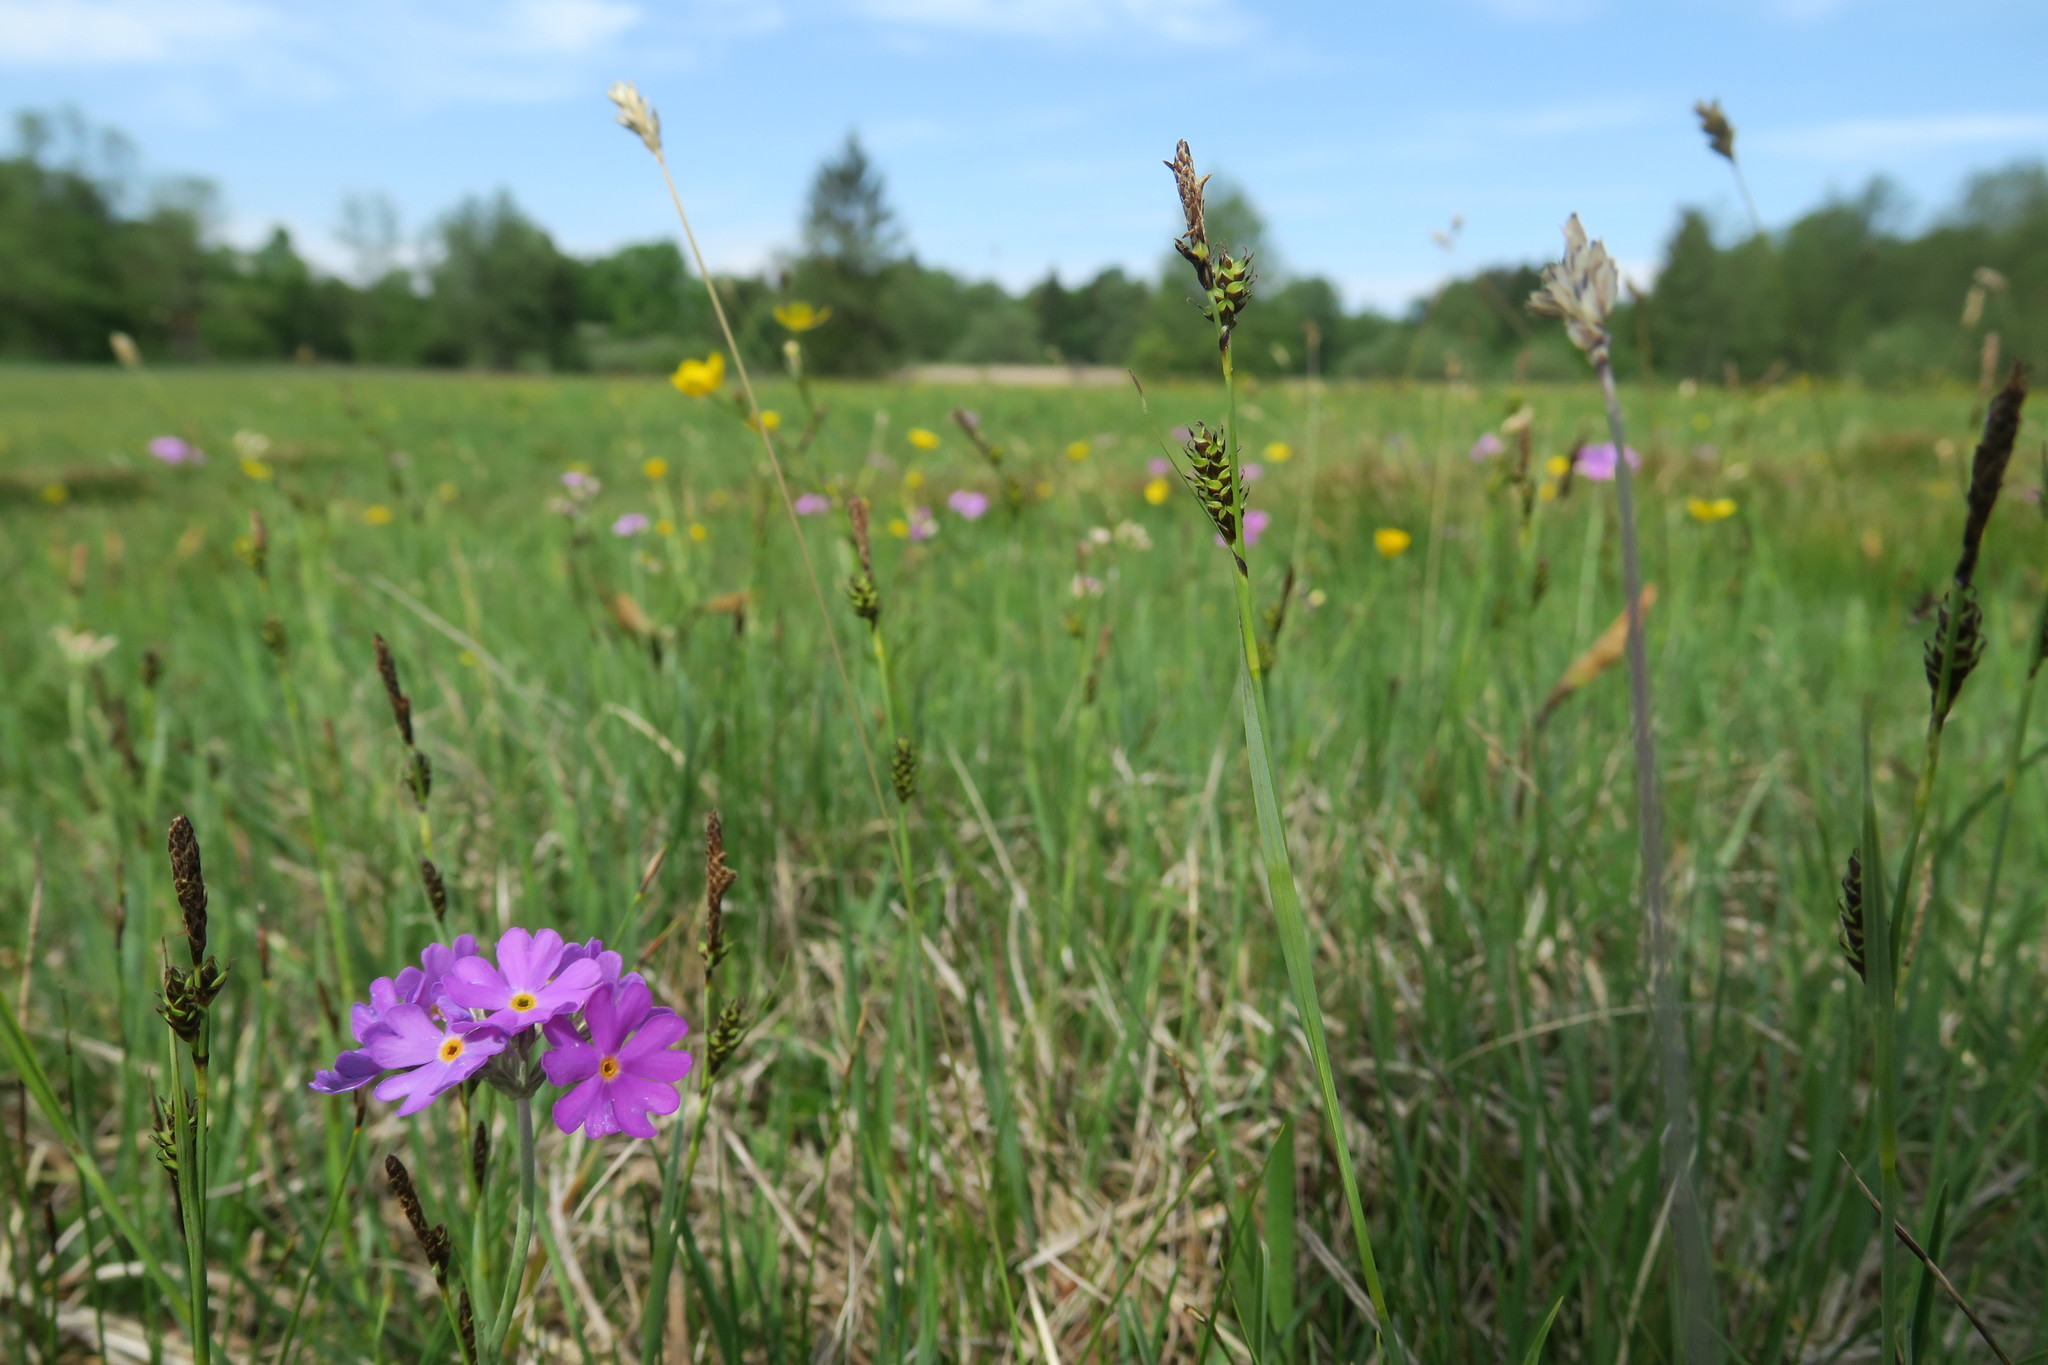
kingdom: Plantae
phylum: Tracheophyta
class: Magnoliopsida
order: Ericales
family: Primulaceae
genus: Primula
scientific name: Primula farinosa
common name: Bird's-eye primrose
